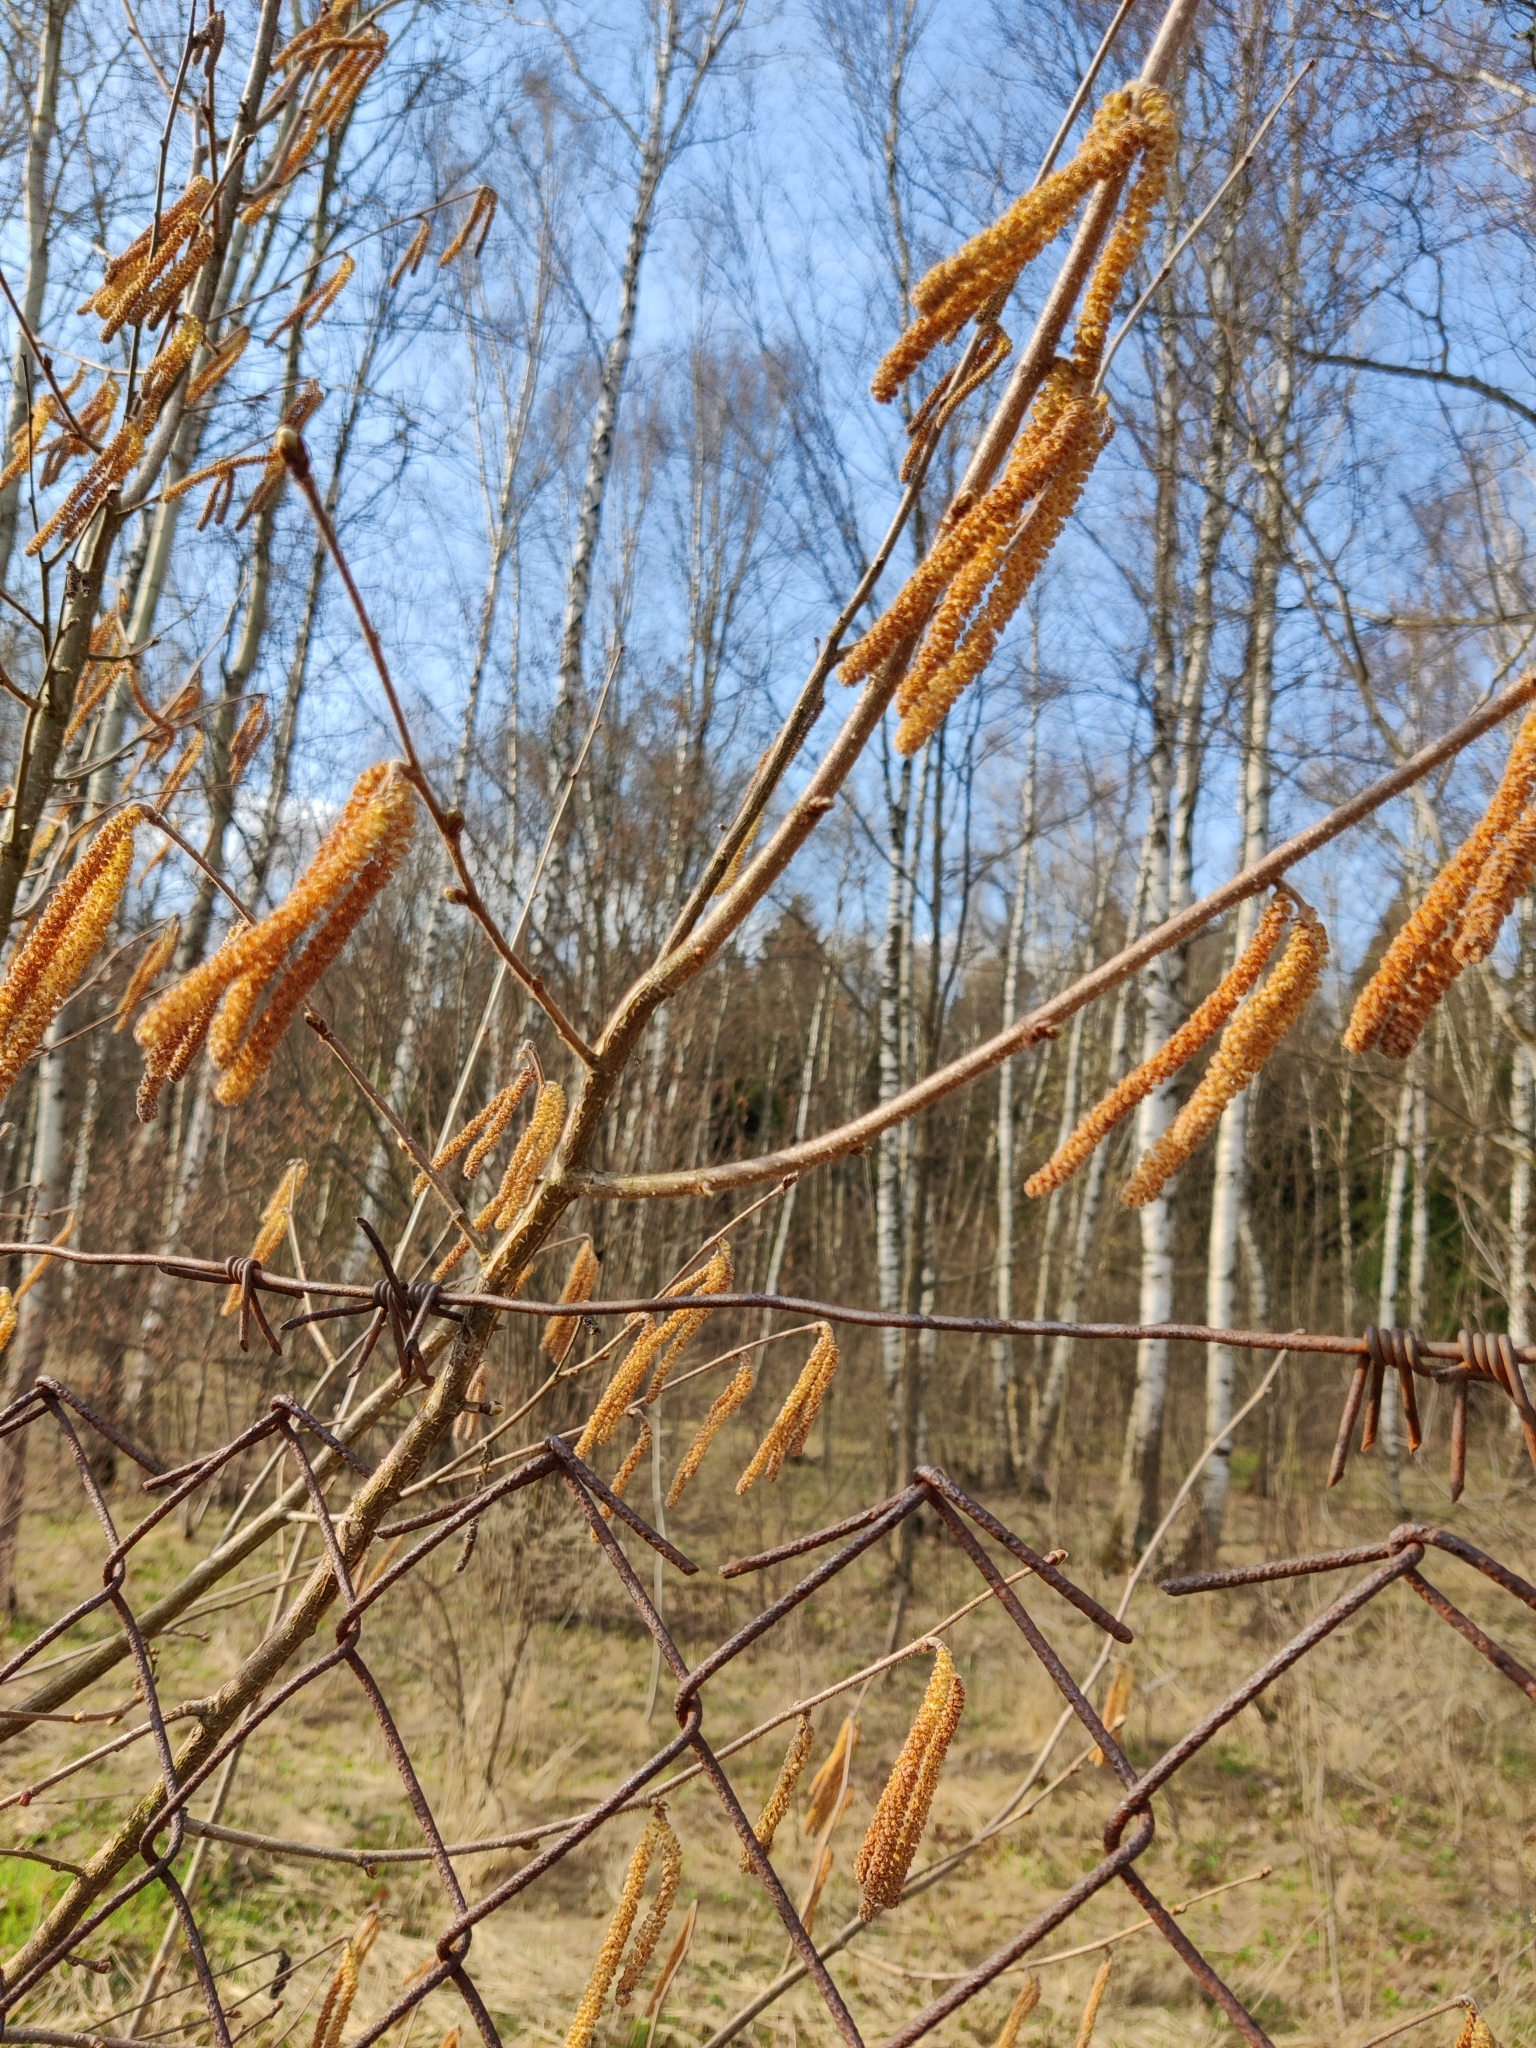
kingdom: Plantae
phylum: Tracheophyta
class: Magnoliopsida
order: Fagales
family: Betulaceae
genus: Corylus
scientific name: Corylus avellana
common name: European hazel
